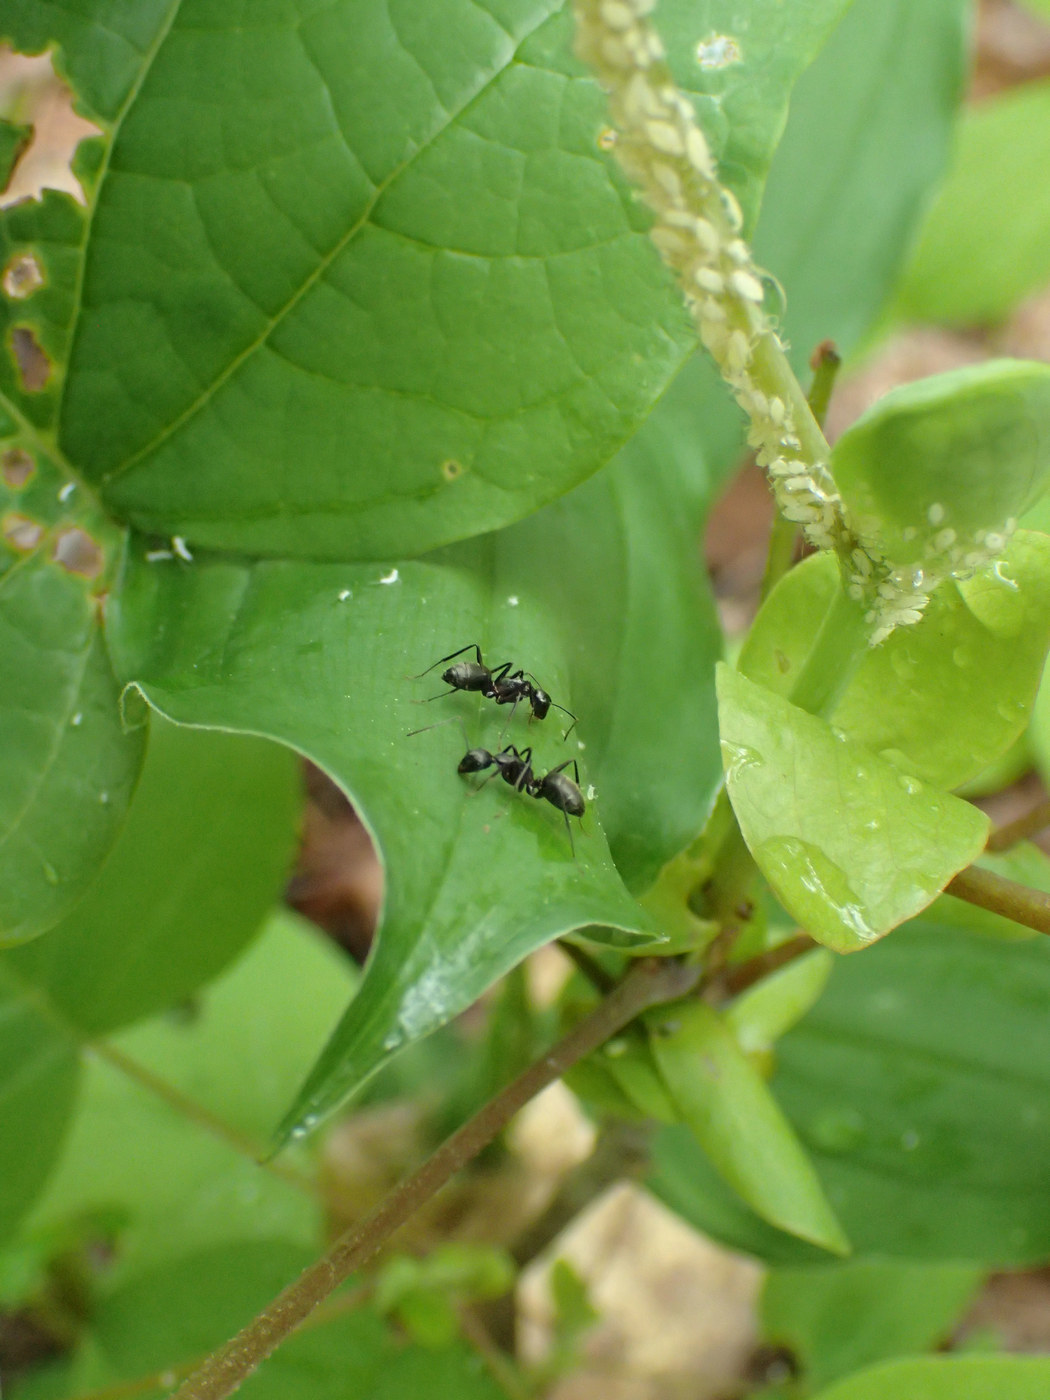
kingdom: Animalia
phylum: Arthropoda
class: Insecta
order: Hymenoptera
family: Formicidae
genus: Camponotus
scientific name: Camponotus pennsylvanicus
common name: Black carpenter ant
